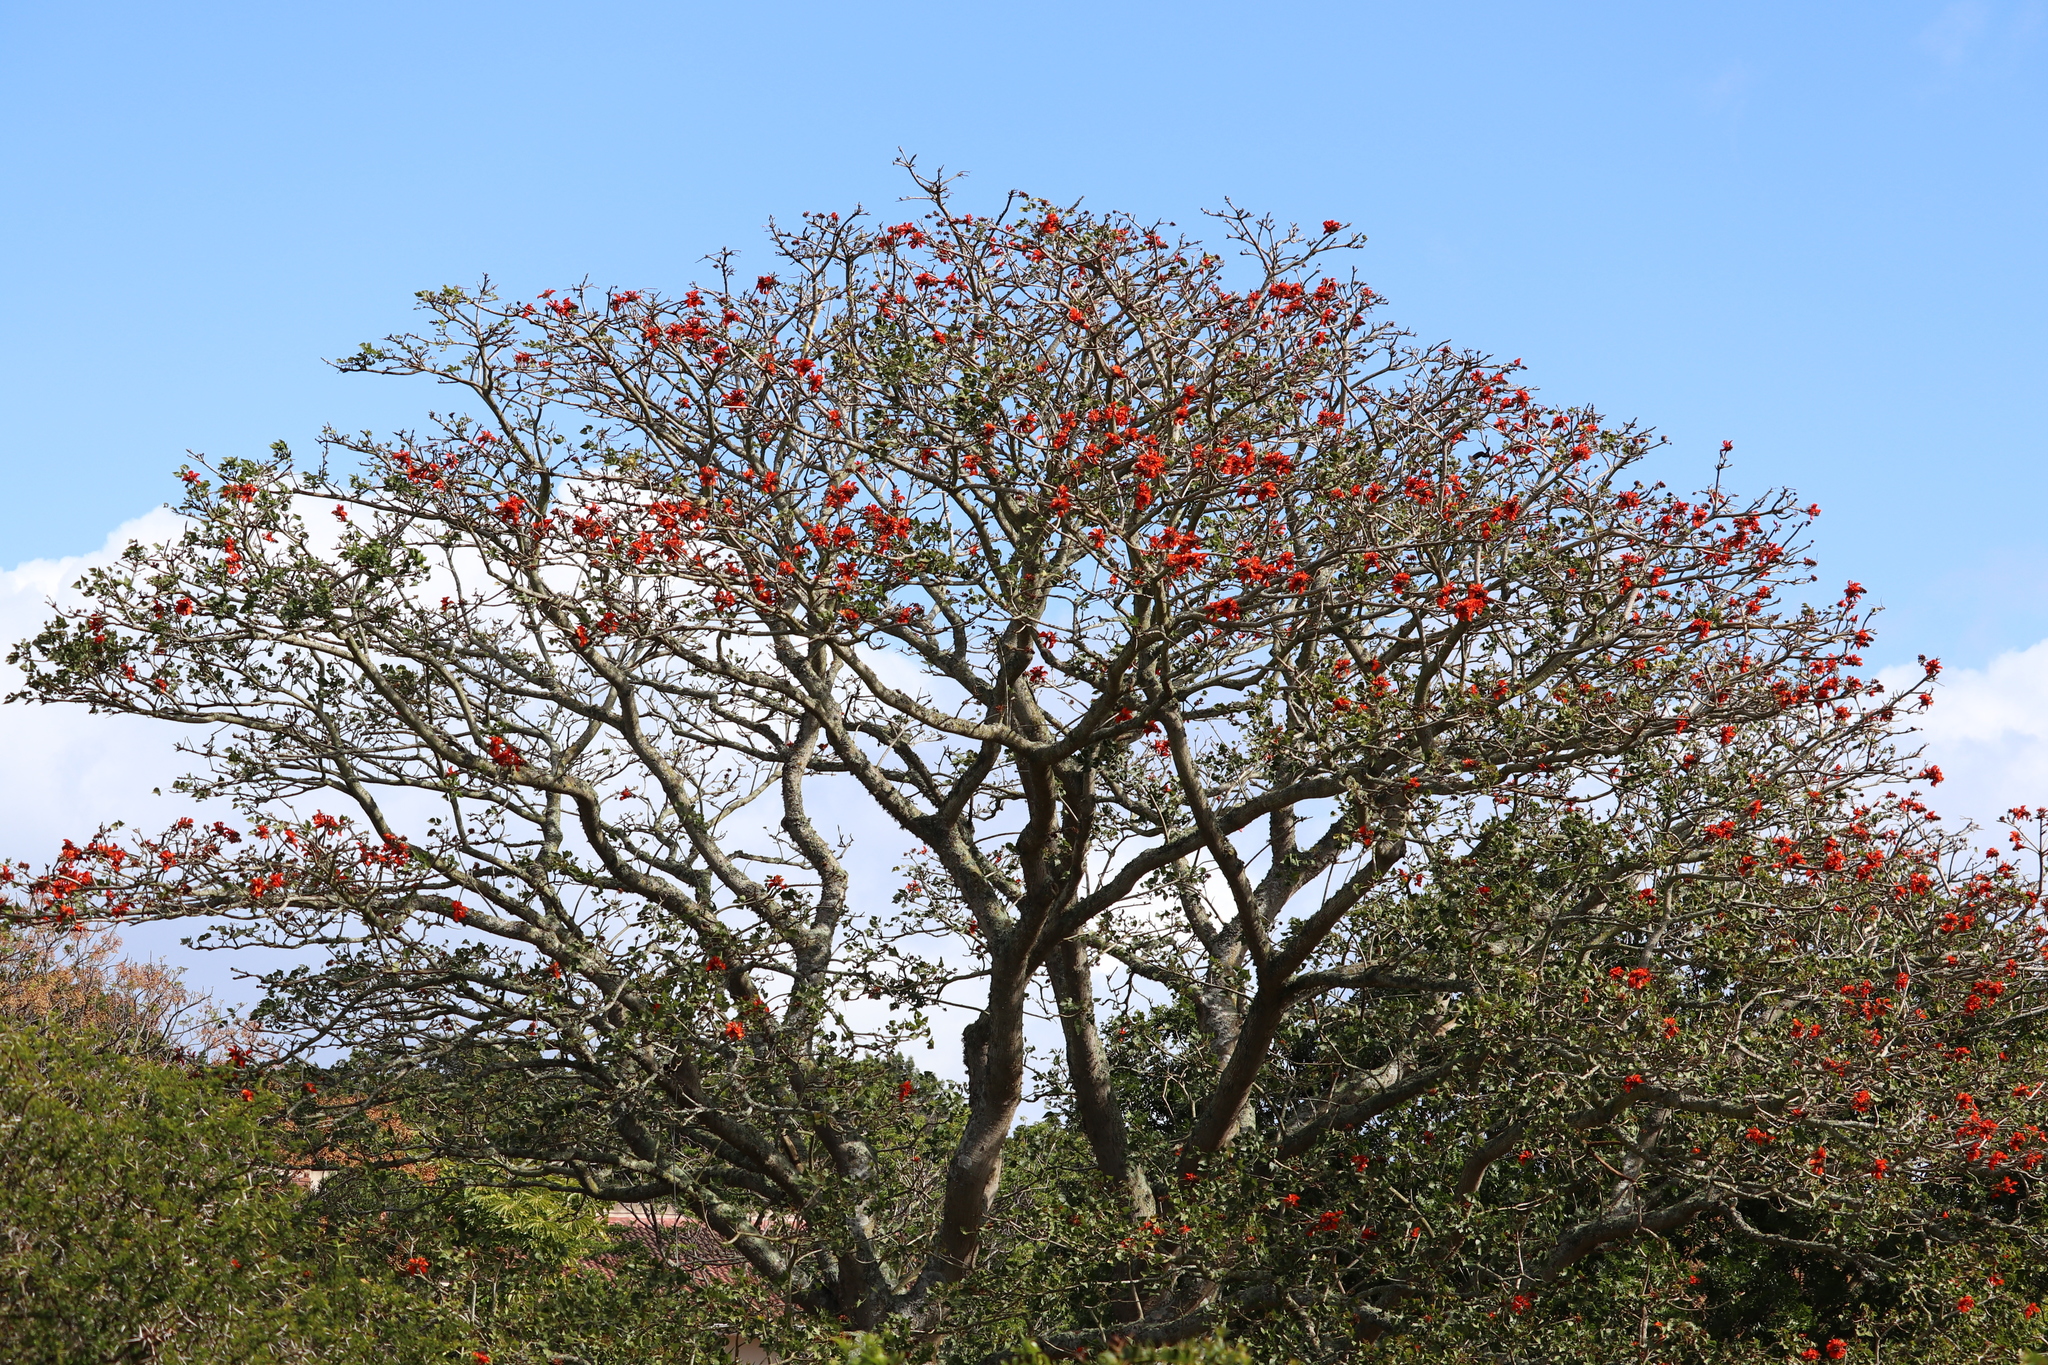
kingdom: Plantae
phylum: Tracheophyta
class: Magnoliopsida
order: Fabales
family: Fabaceae
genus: Erythrina
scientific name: Erythrina caffra
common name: Coast coral tree
